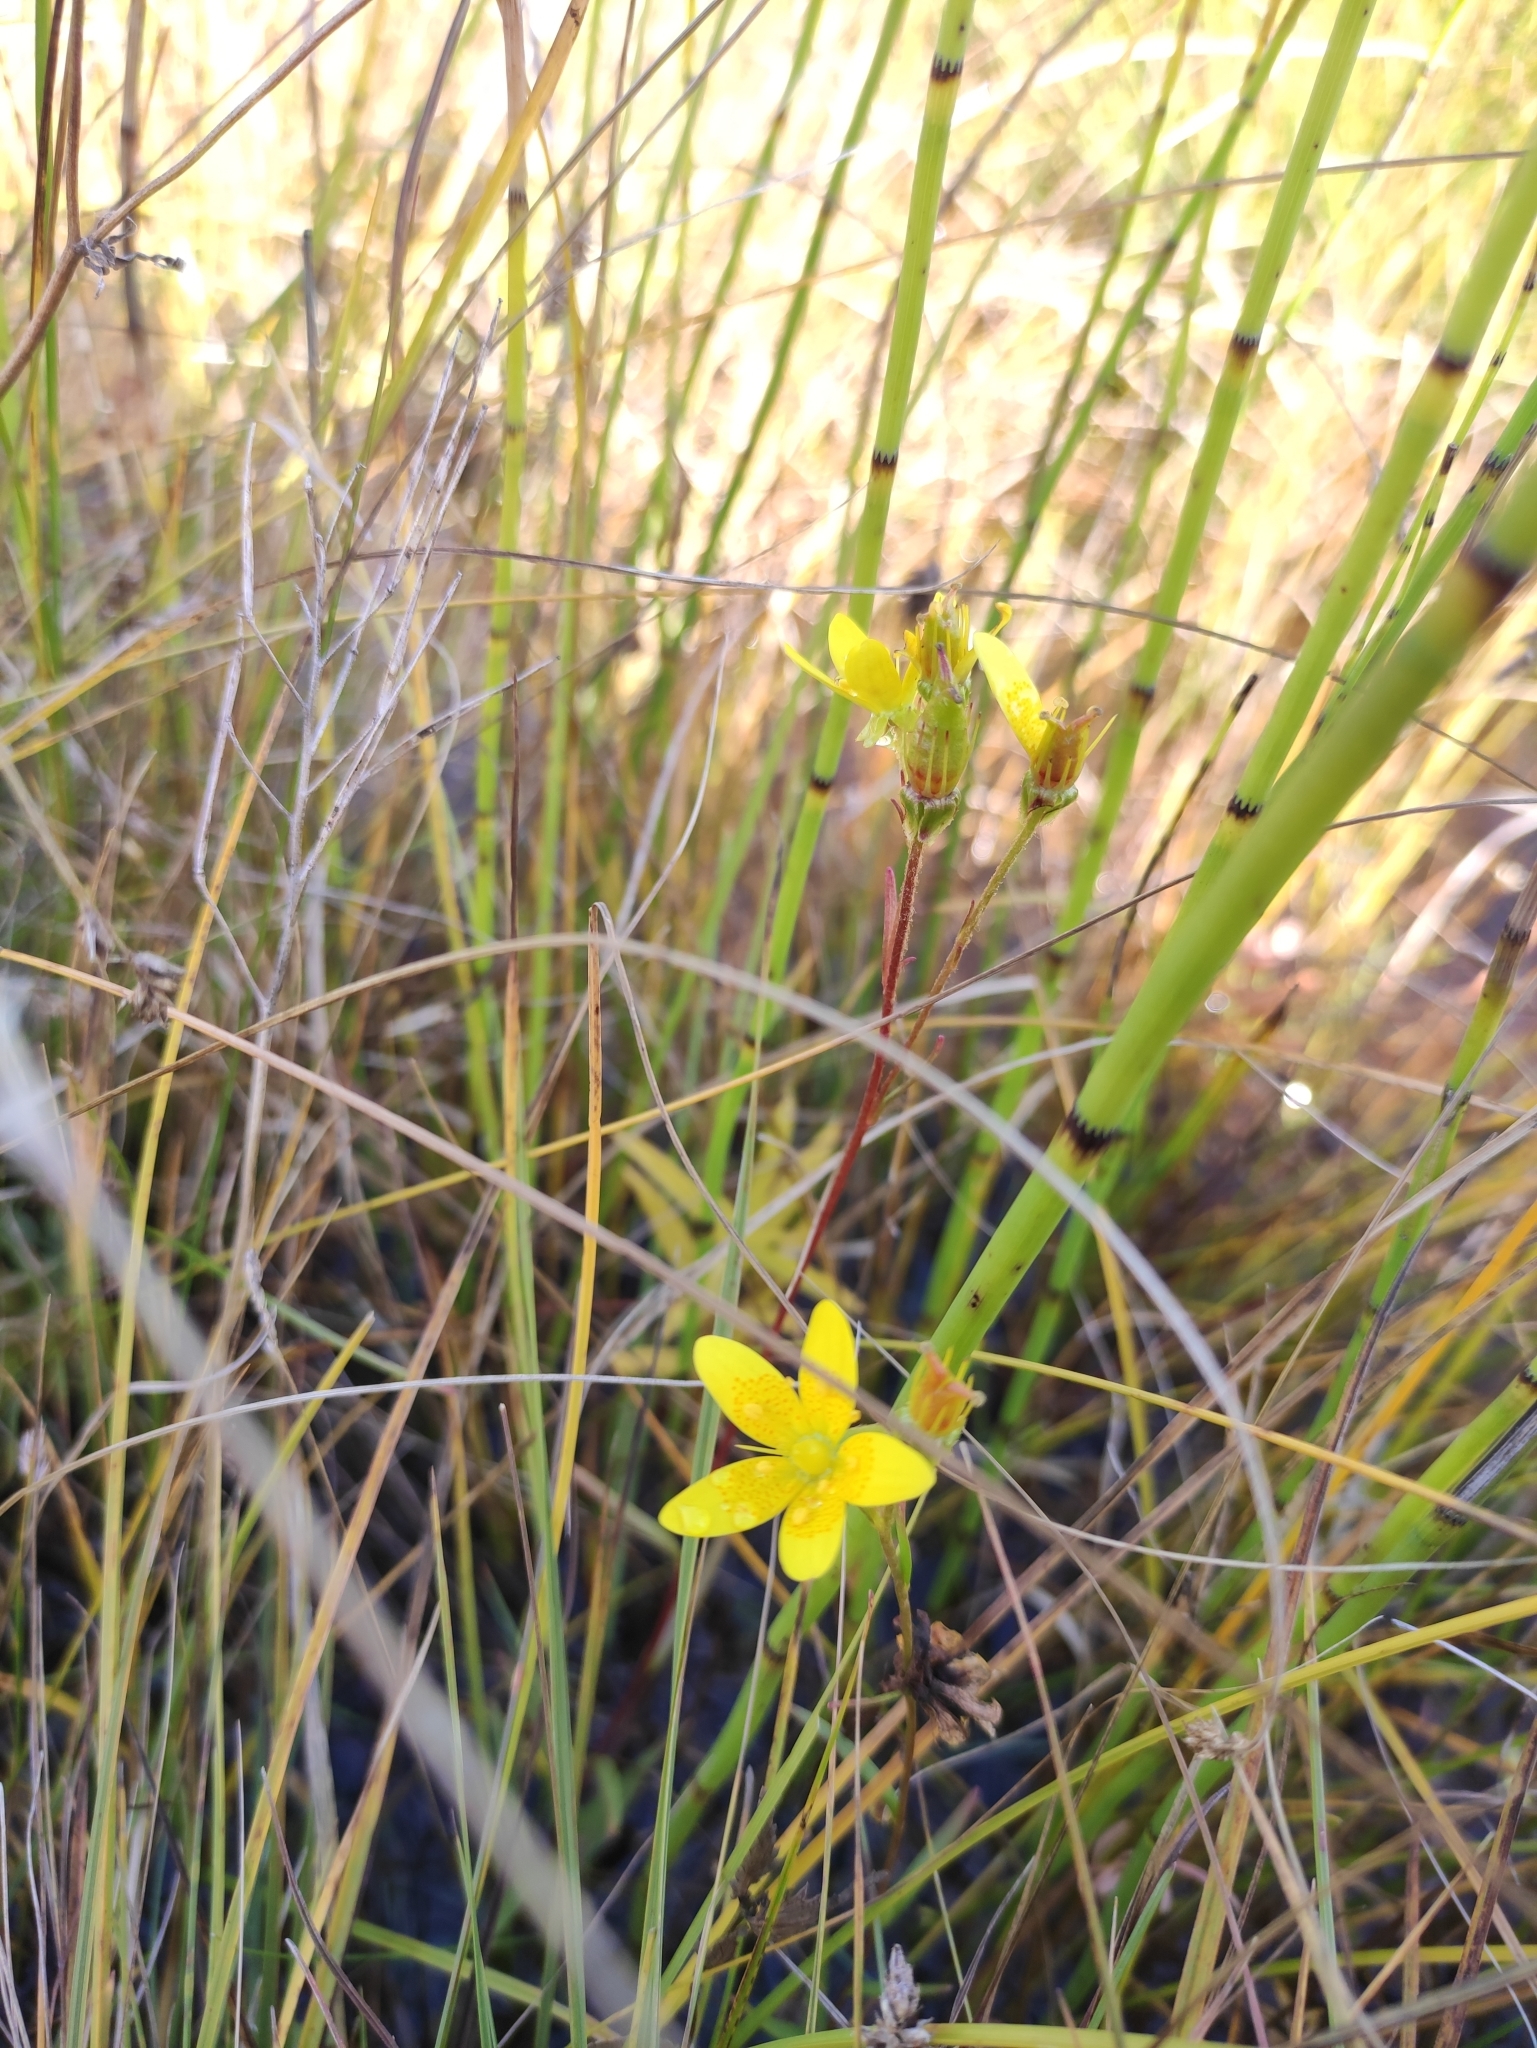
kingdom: Plantae
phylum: Tracheophyta
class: Magnoliopsida
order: Saxifragales
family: Saxifragaceae
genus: Saxifraga
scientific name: Saxifraga hirculus
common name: Yellow marsh saxifrage
